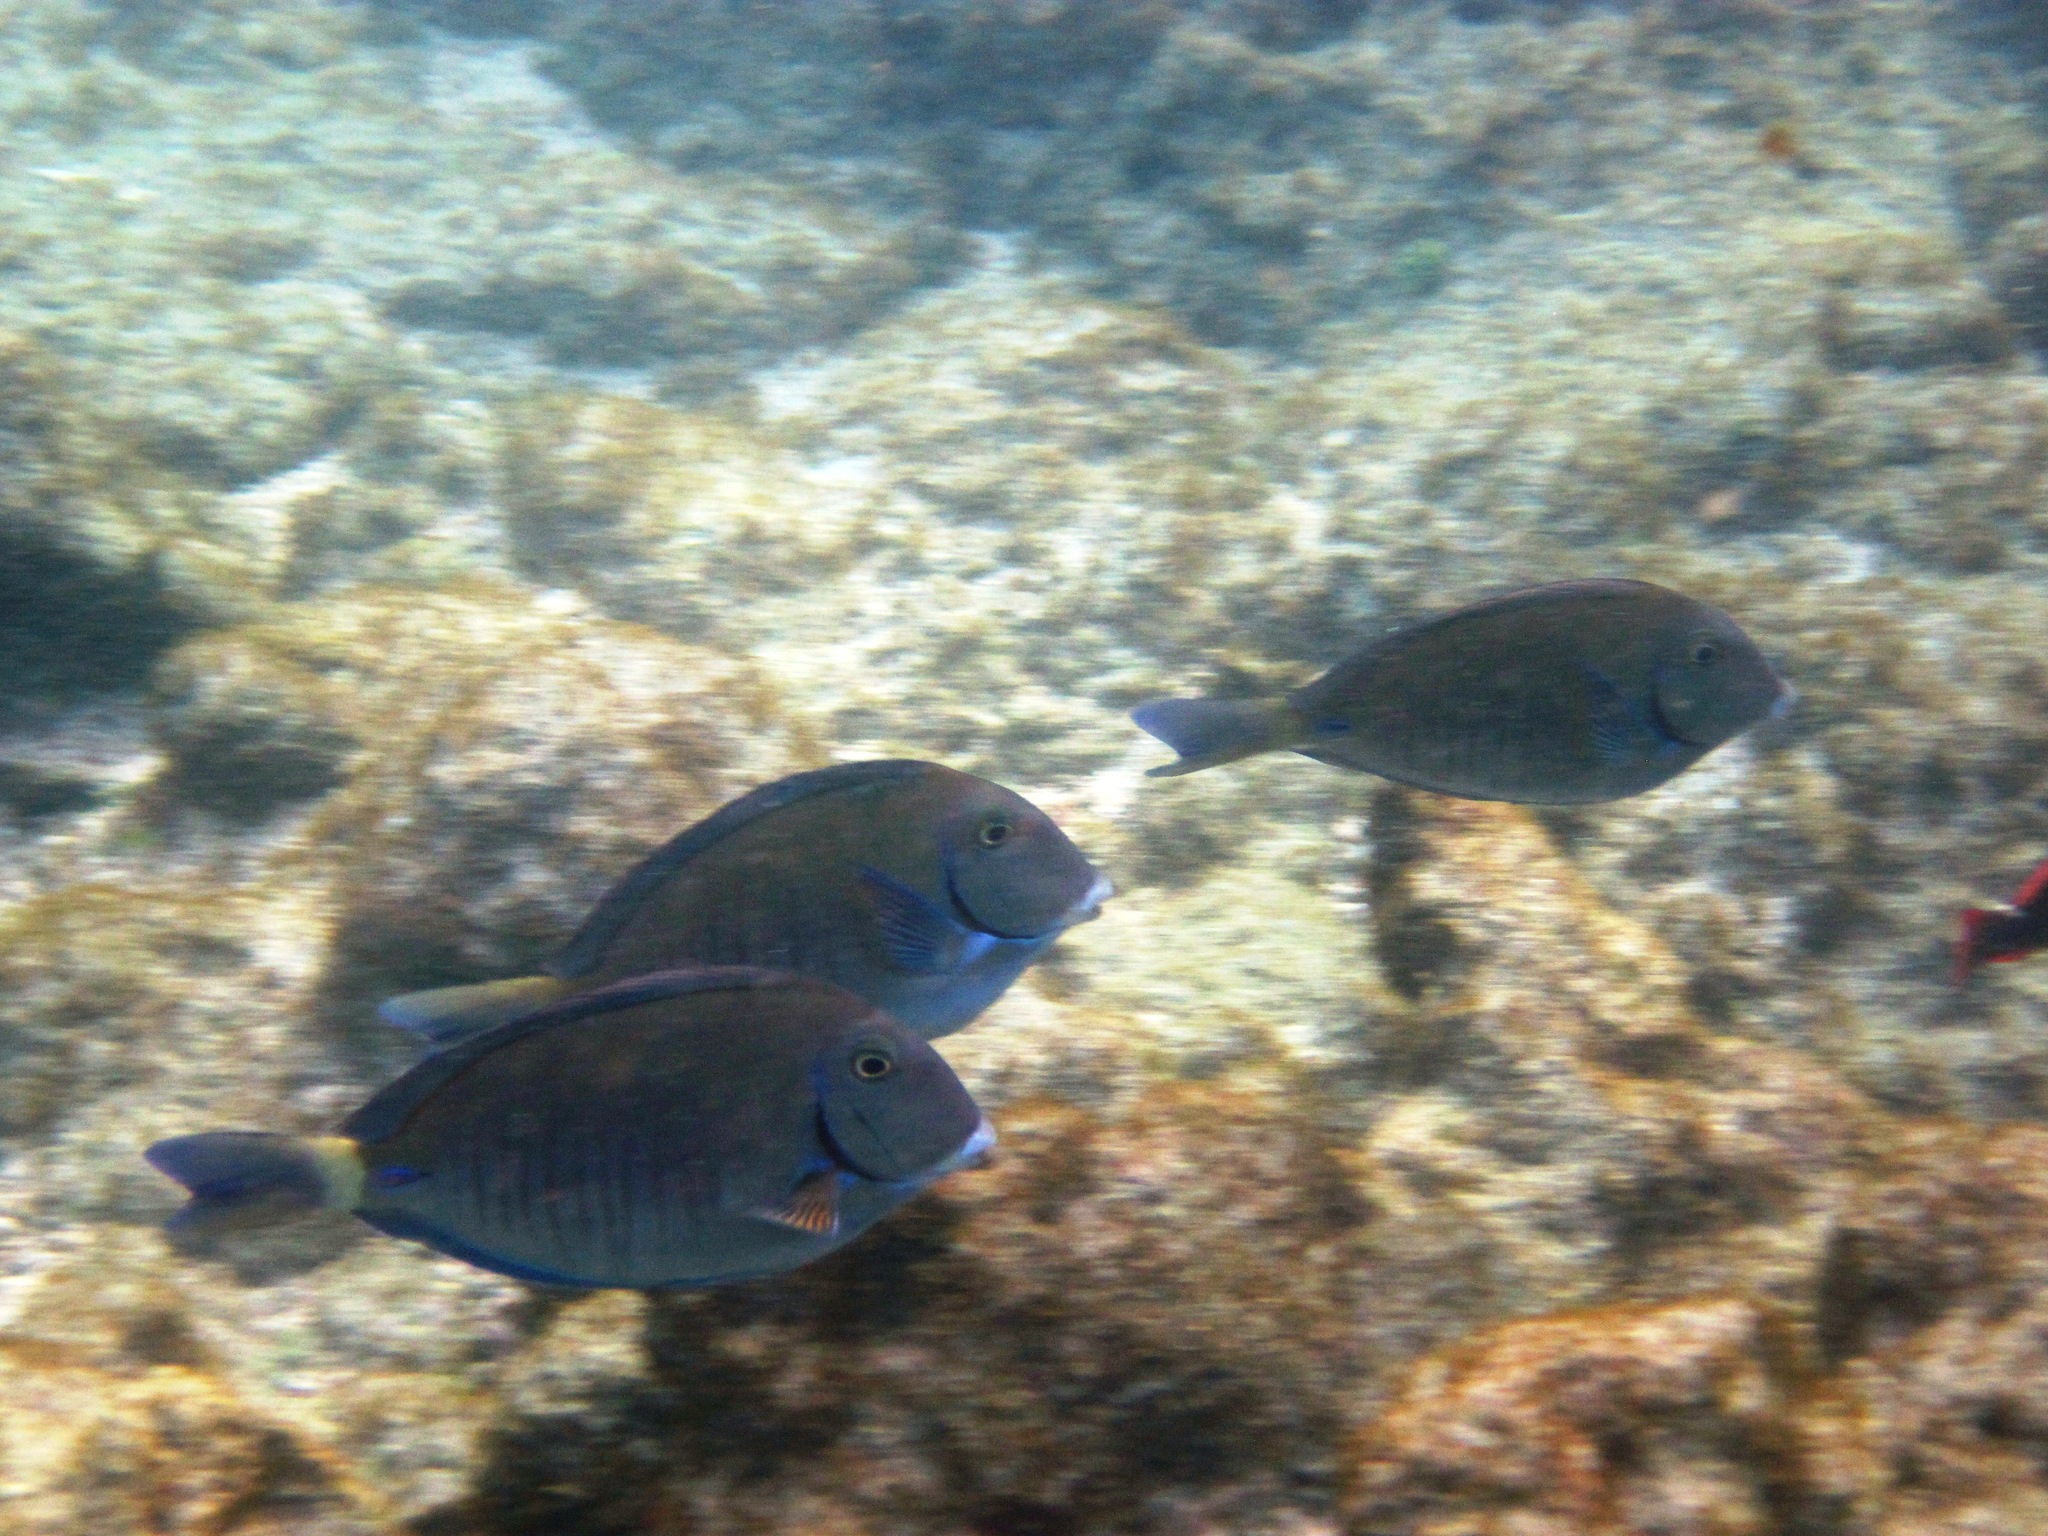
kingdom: Animalia
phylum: Chordata
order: Perciformes
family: Acanthuridae
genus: Acanthurus
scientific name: Acanthurus chirurgus
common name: Doctorfish
